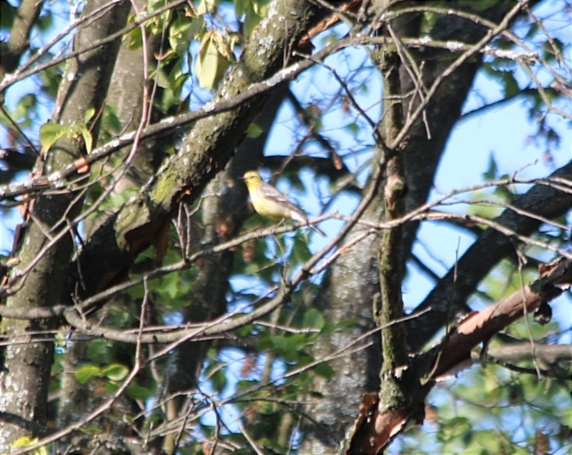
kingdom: Animalia
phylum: Chordata
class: Aves
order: Passeriformes
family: Motacillidae
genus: Motacilla
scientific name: Motacilla citreola
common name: Citrine wagtail
